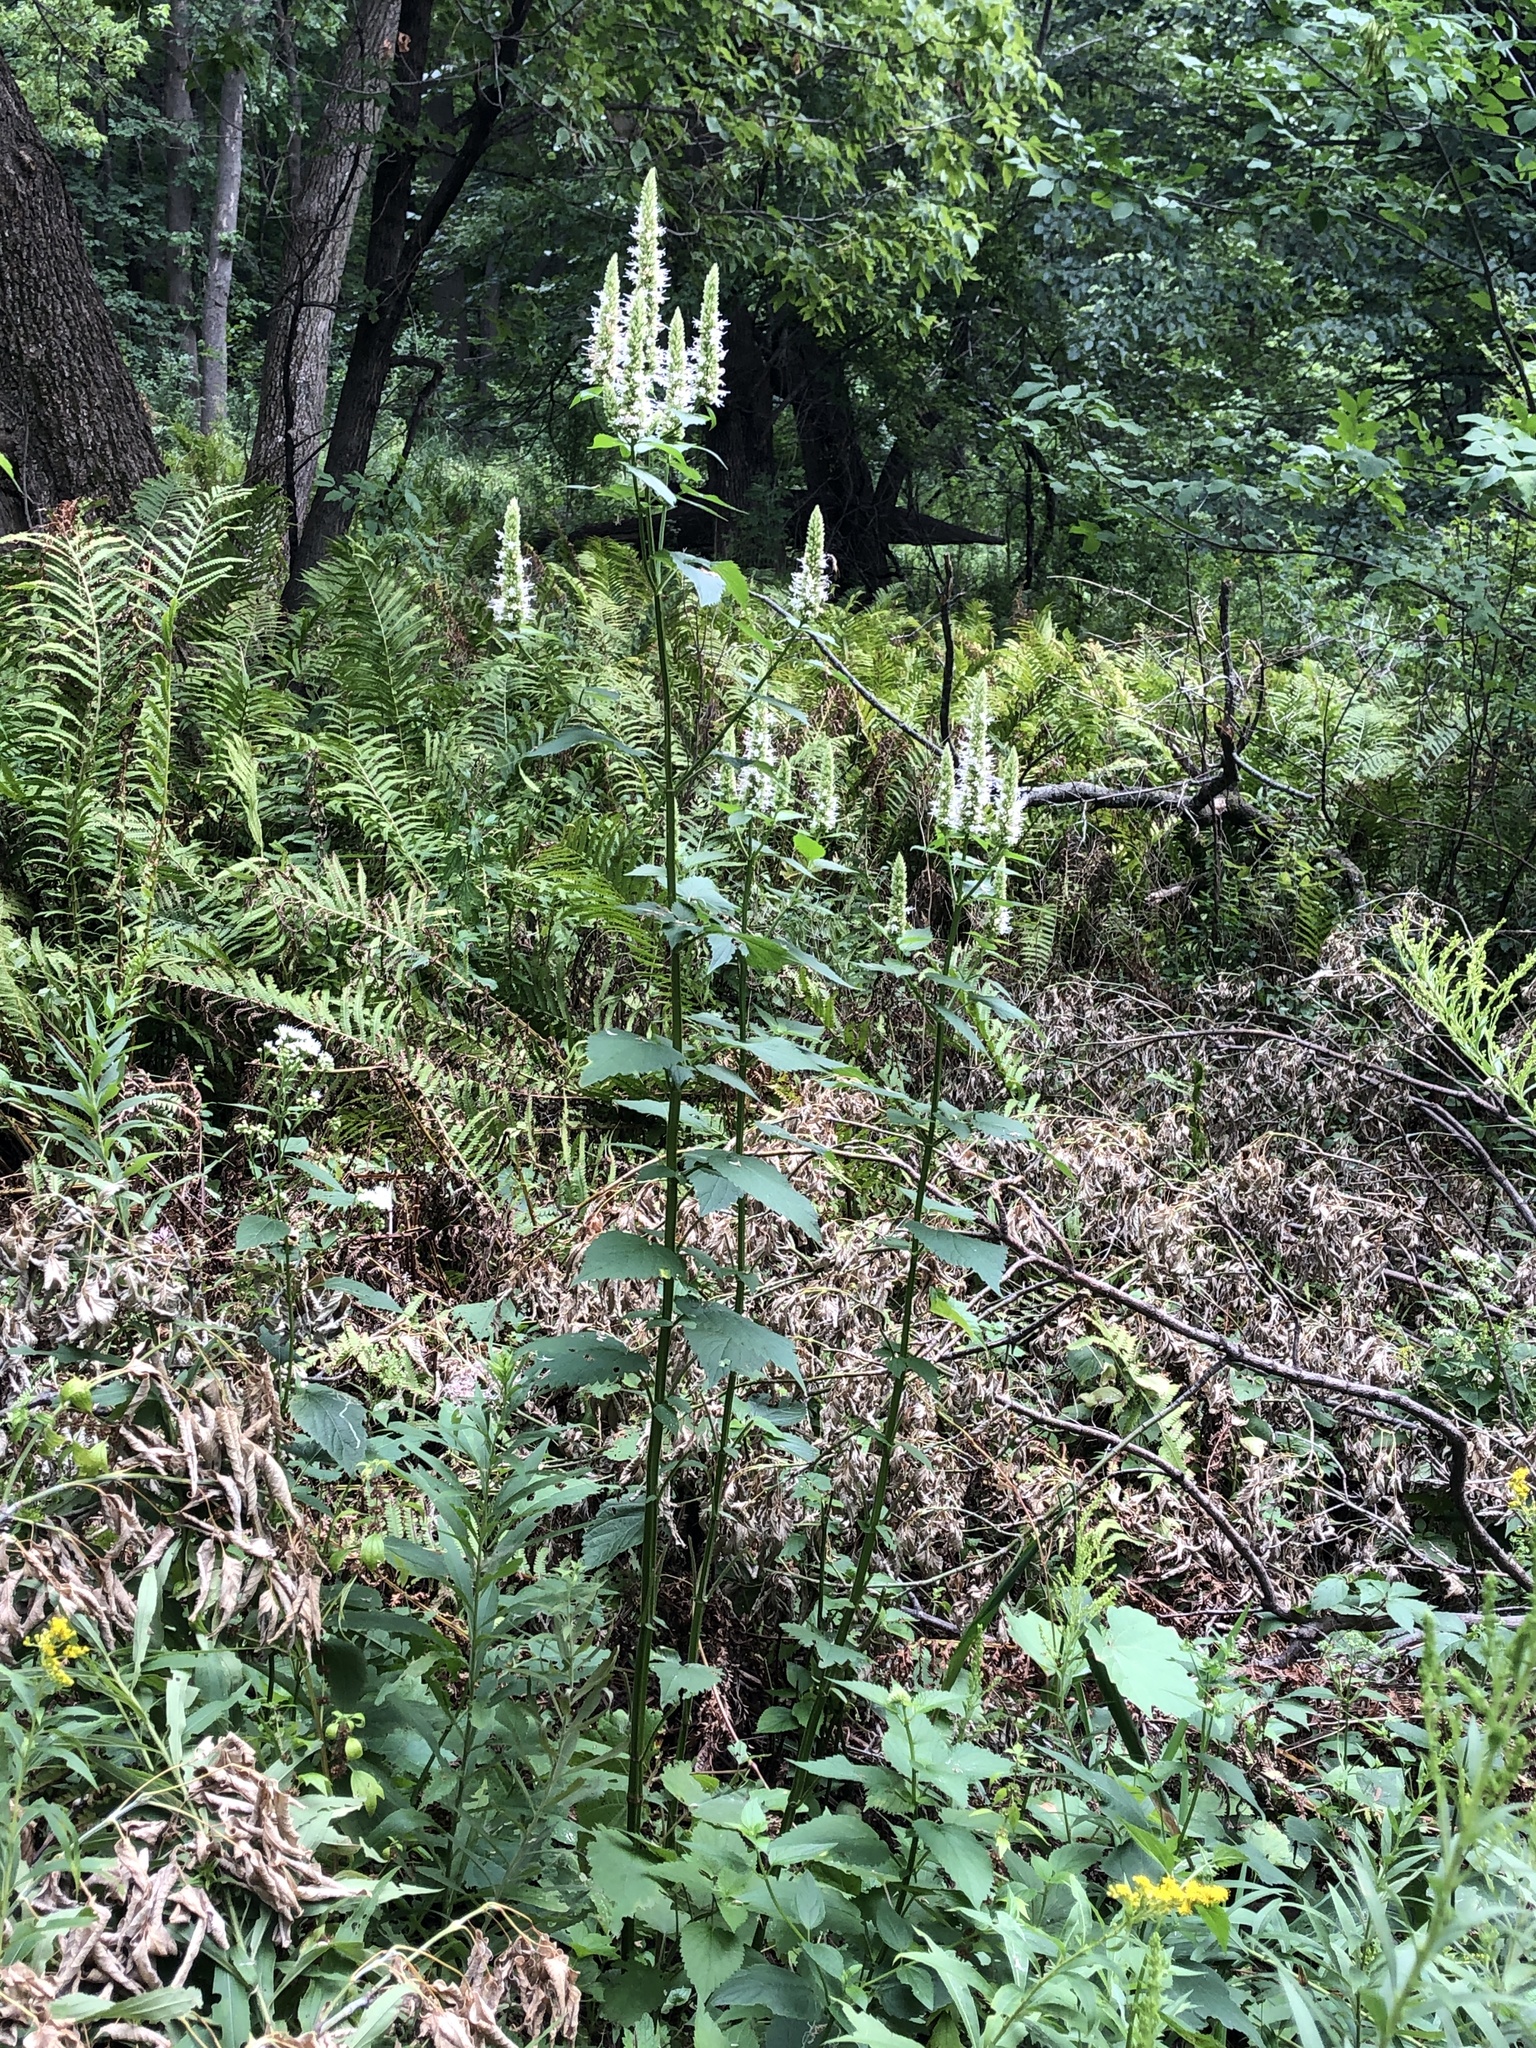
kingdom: Plantae
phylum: Tracheophyta
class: Magnoliopsida
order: Lamiales
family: Lamiaceae
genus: Agastache
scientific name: Agastache scrophulariifolia
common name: Figwort giant hyssop
